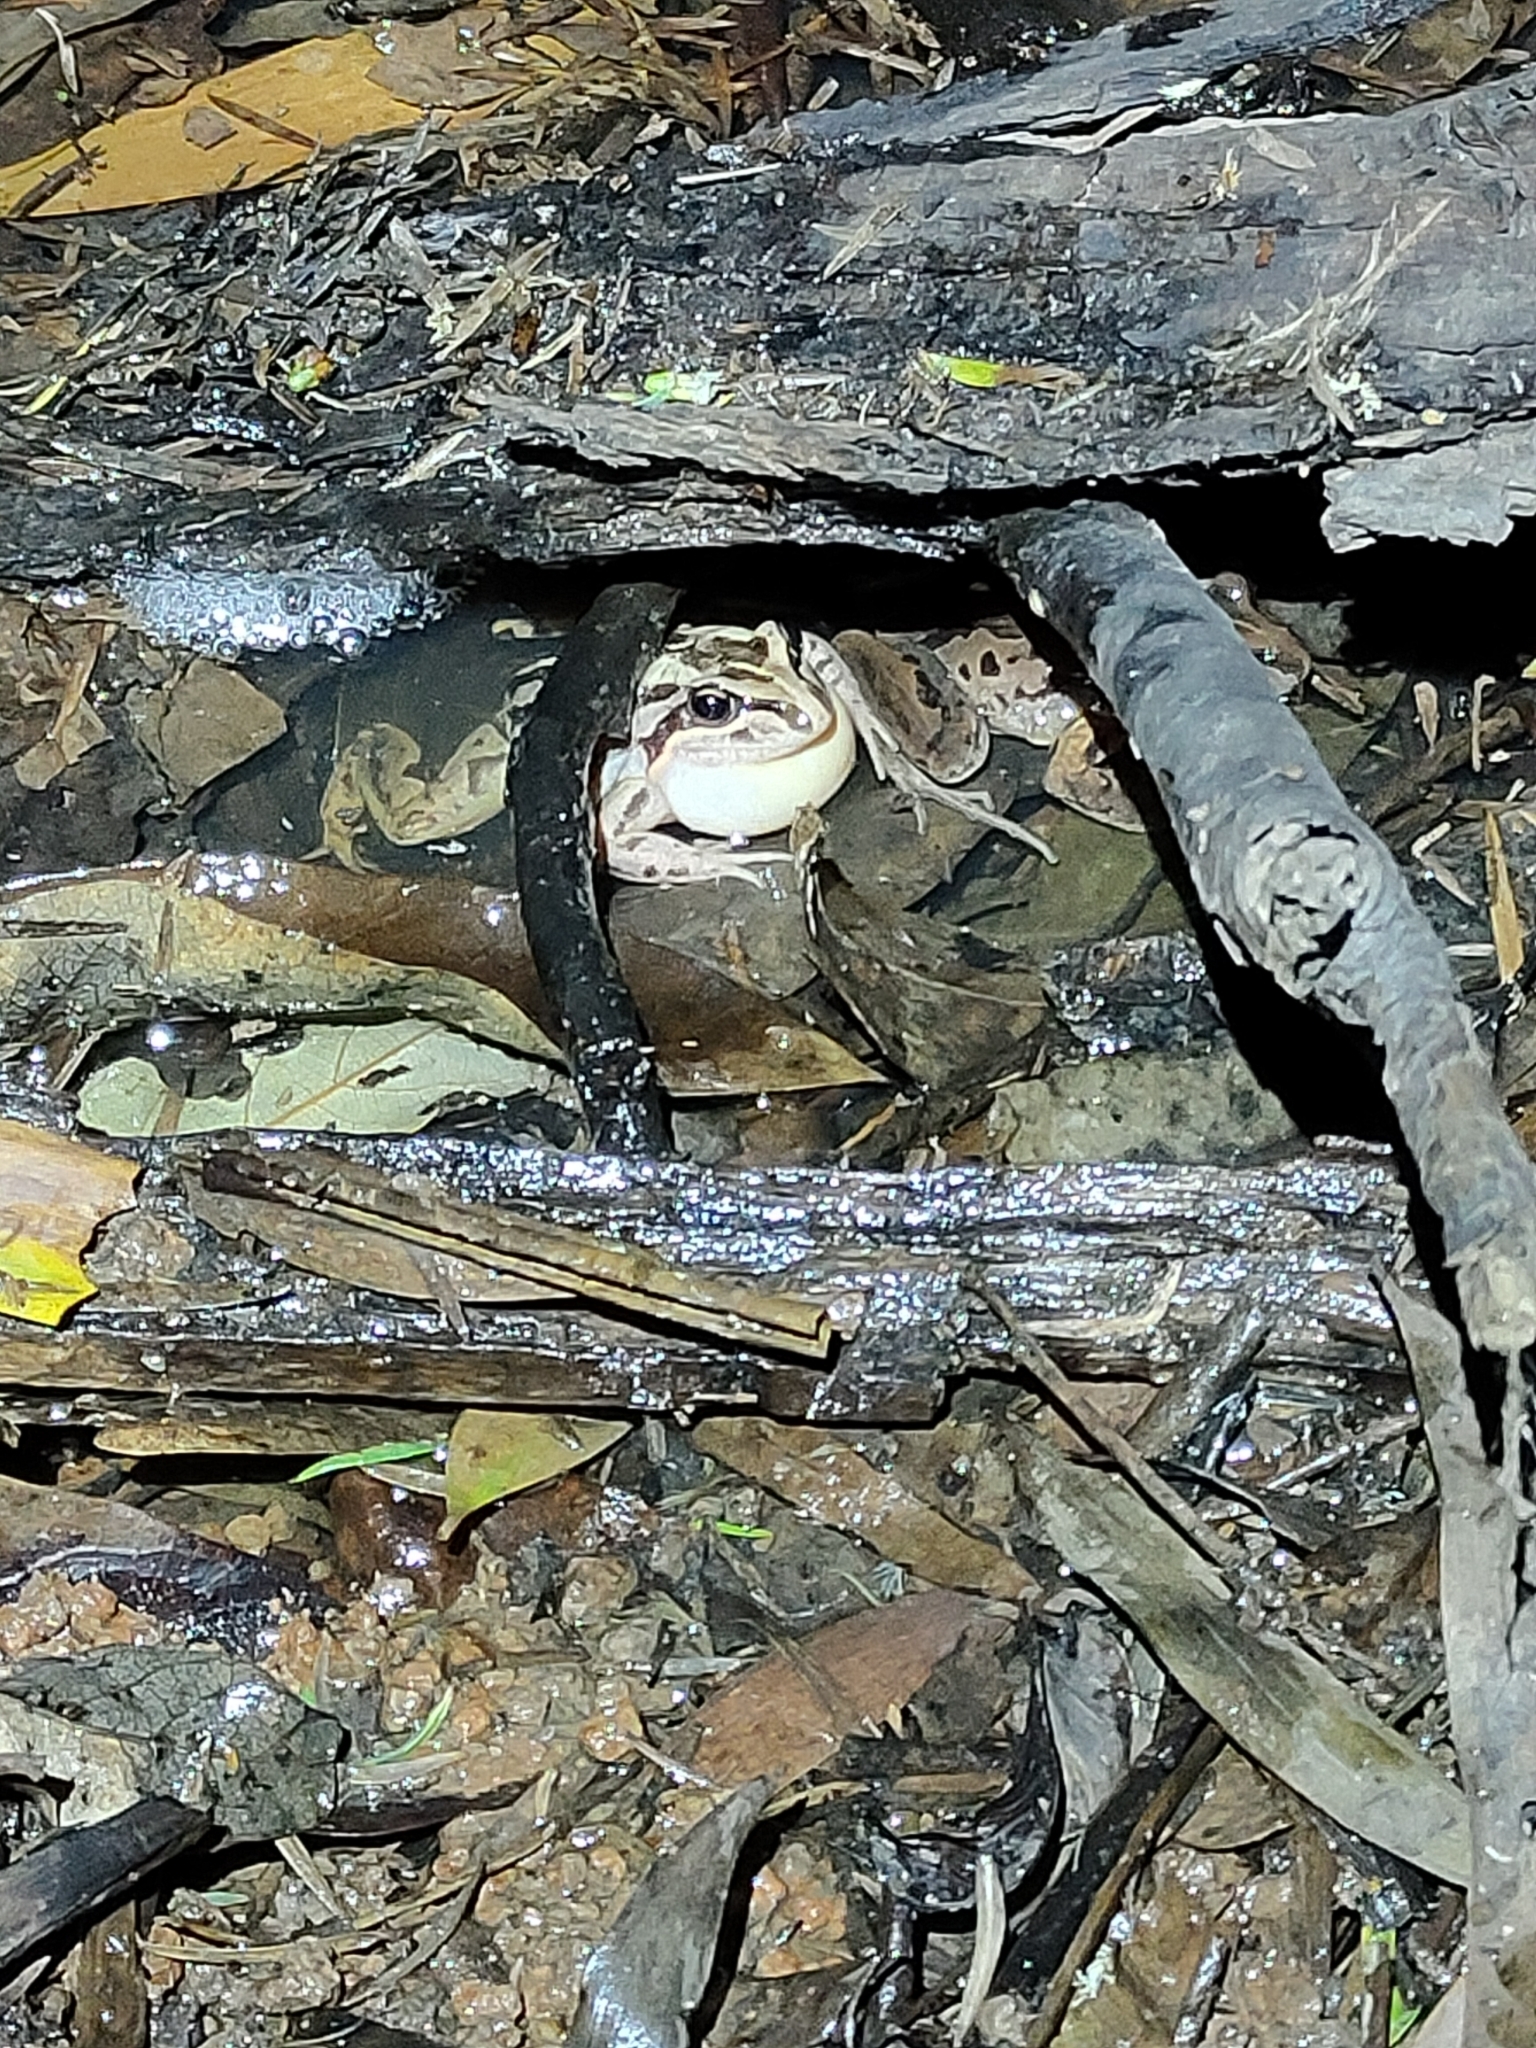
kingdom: Animalia
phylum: Chordata
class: Amphibia
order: Anura
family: Limnodynastidae
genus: Limnodynastes
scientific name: Limnodynastes peronii
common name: Brown frog
